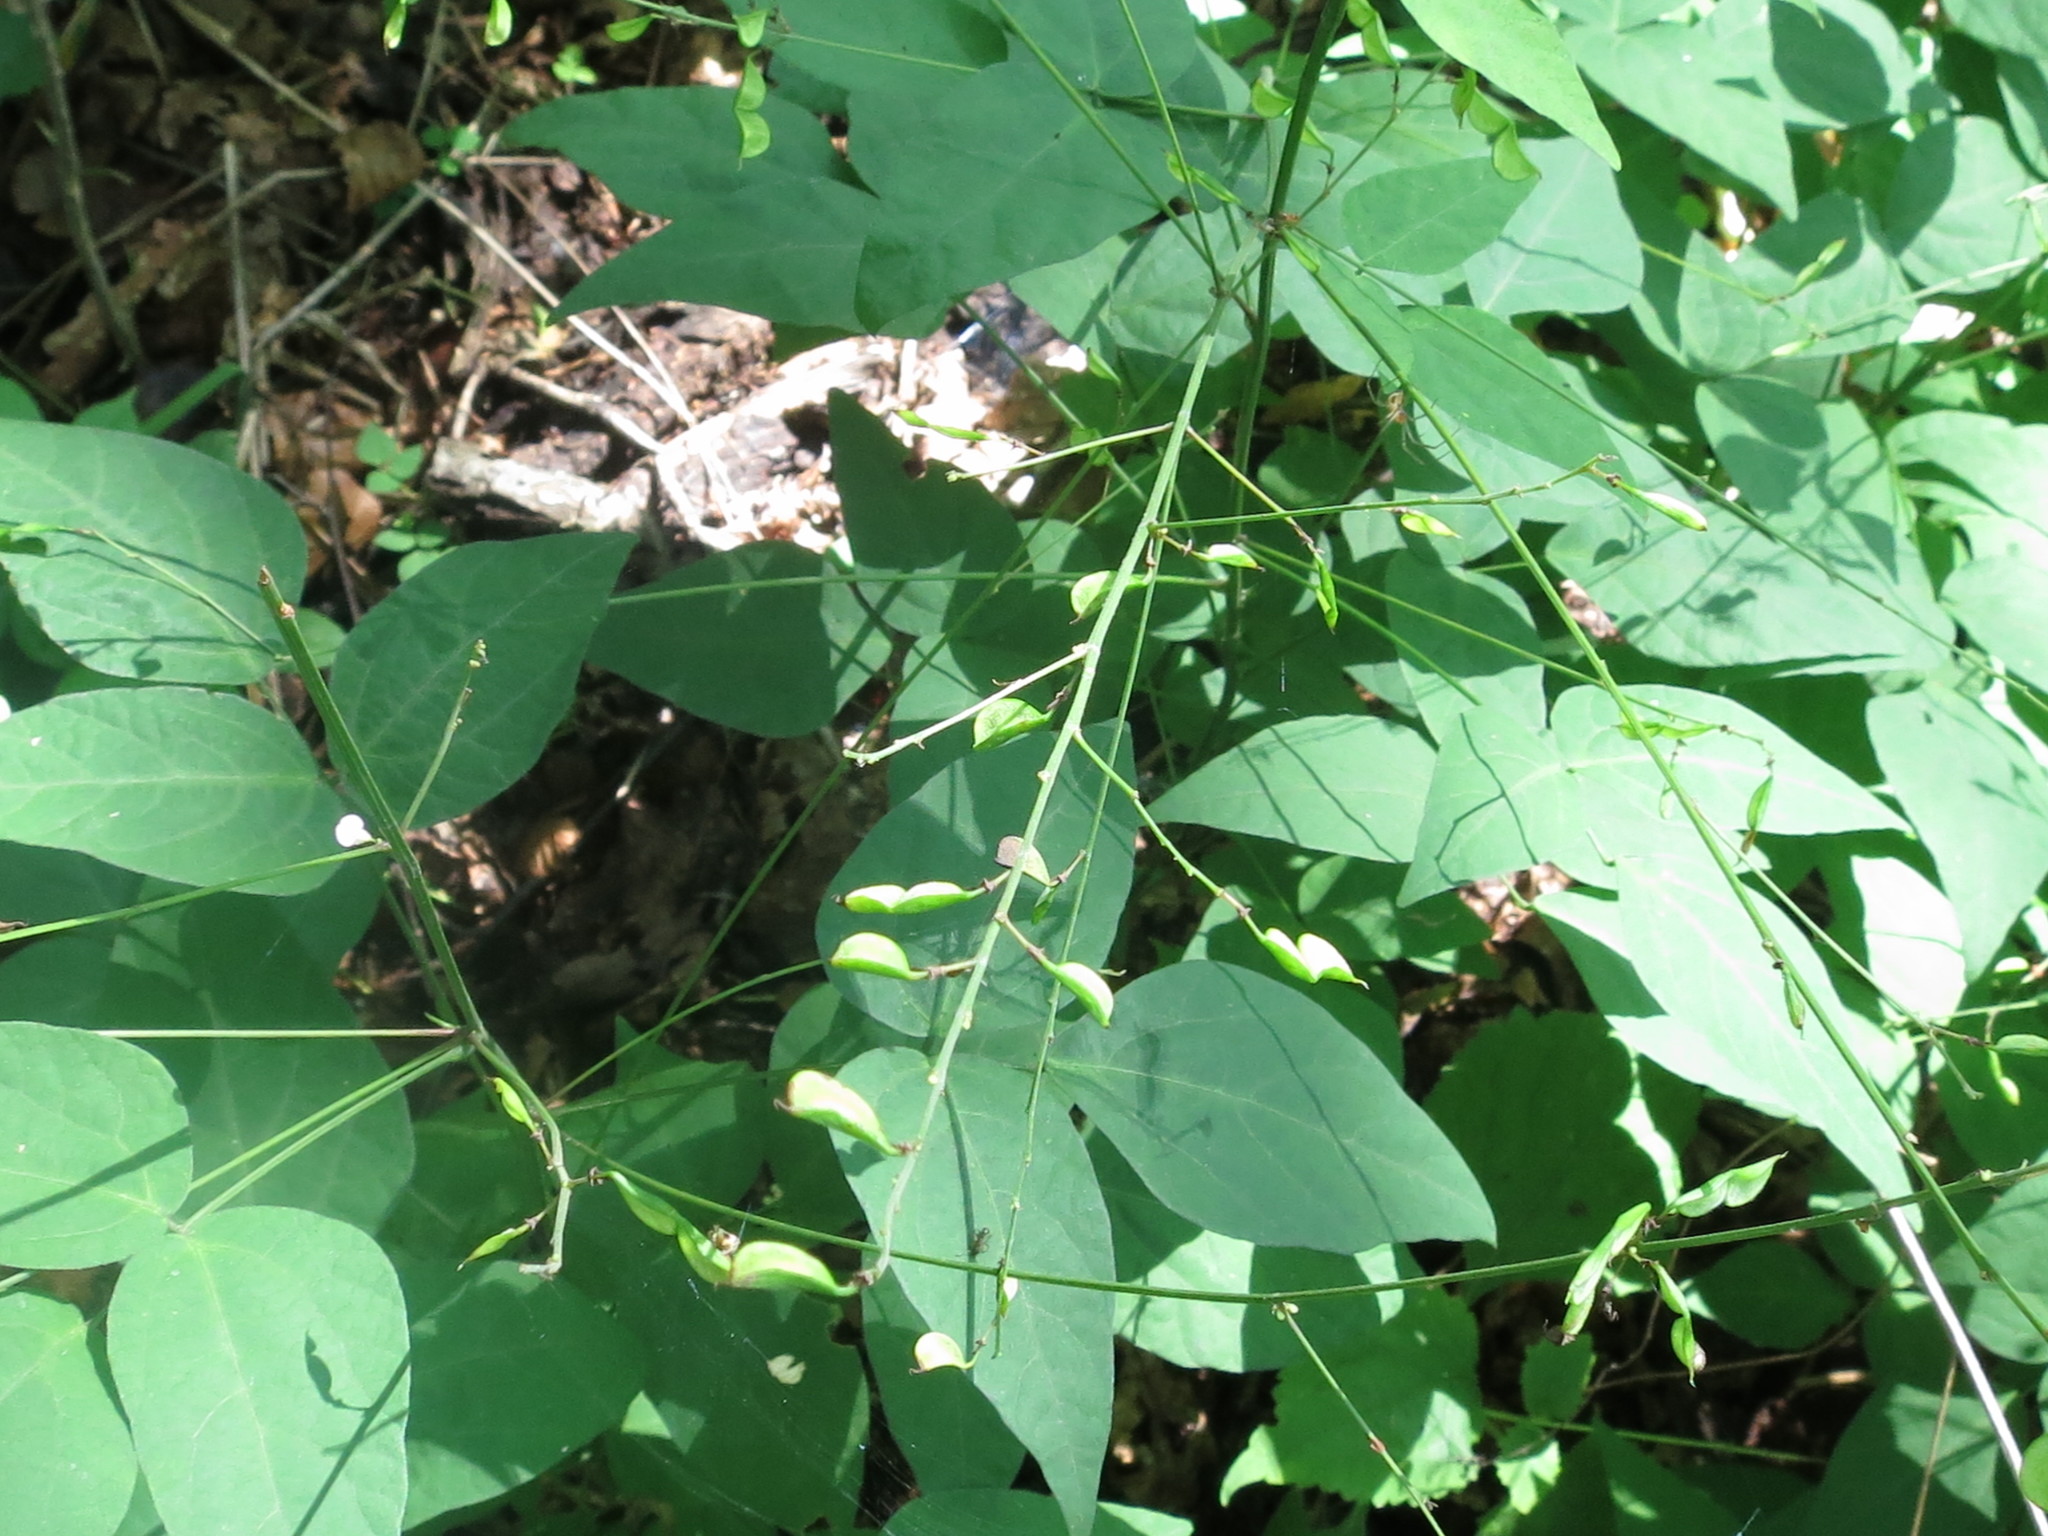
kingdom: Plantae
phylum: Tracheophyta
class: Magnoliopsida
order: Fabales
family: Fabaceae
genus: Hylodesmum
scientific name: Hylodesmum podocarpum
